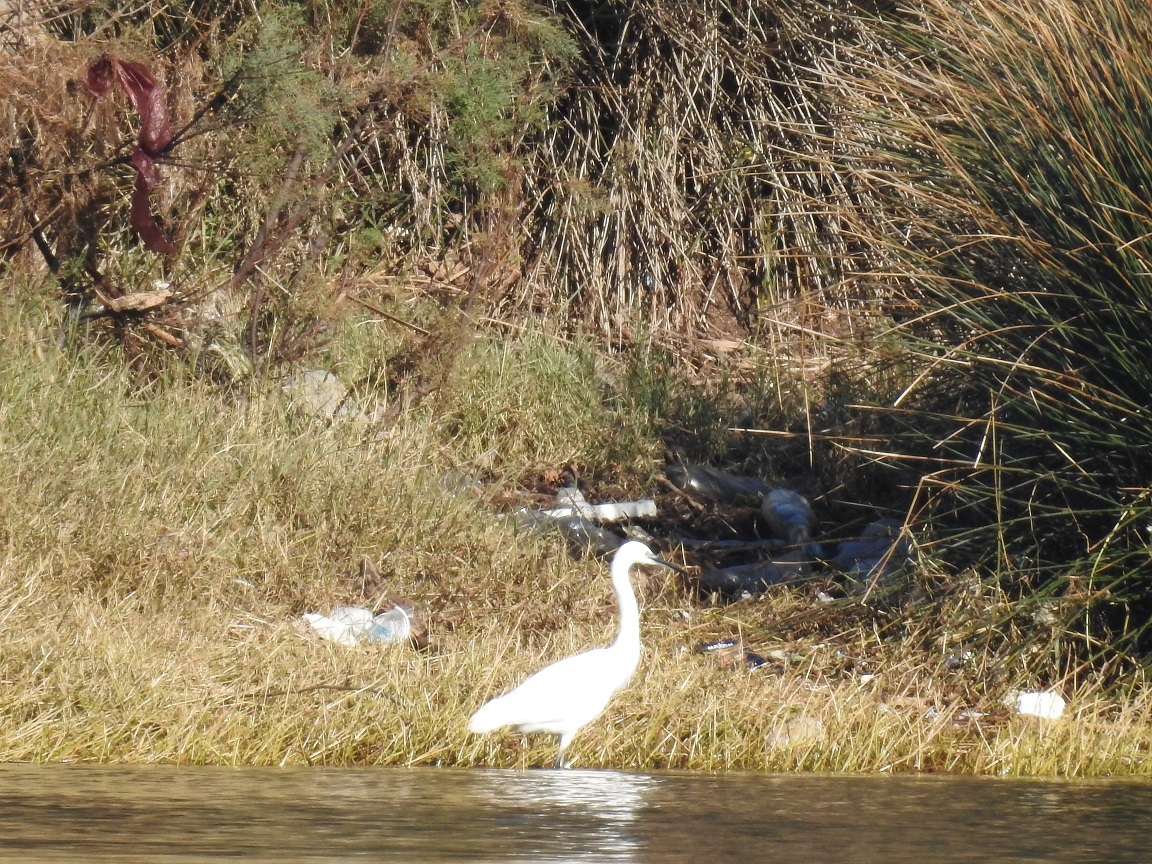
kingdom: Animalia
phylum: Chordata
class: Aves
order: Pelecaniformes
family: Ardeidae
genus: Egretta
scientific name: Egretta garzetta
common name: Little egret
